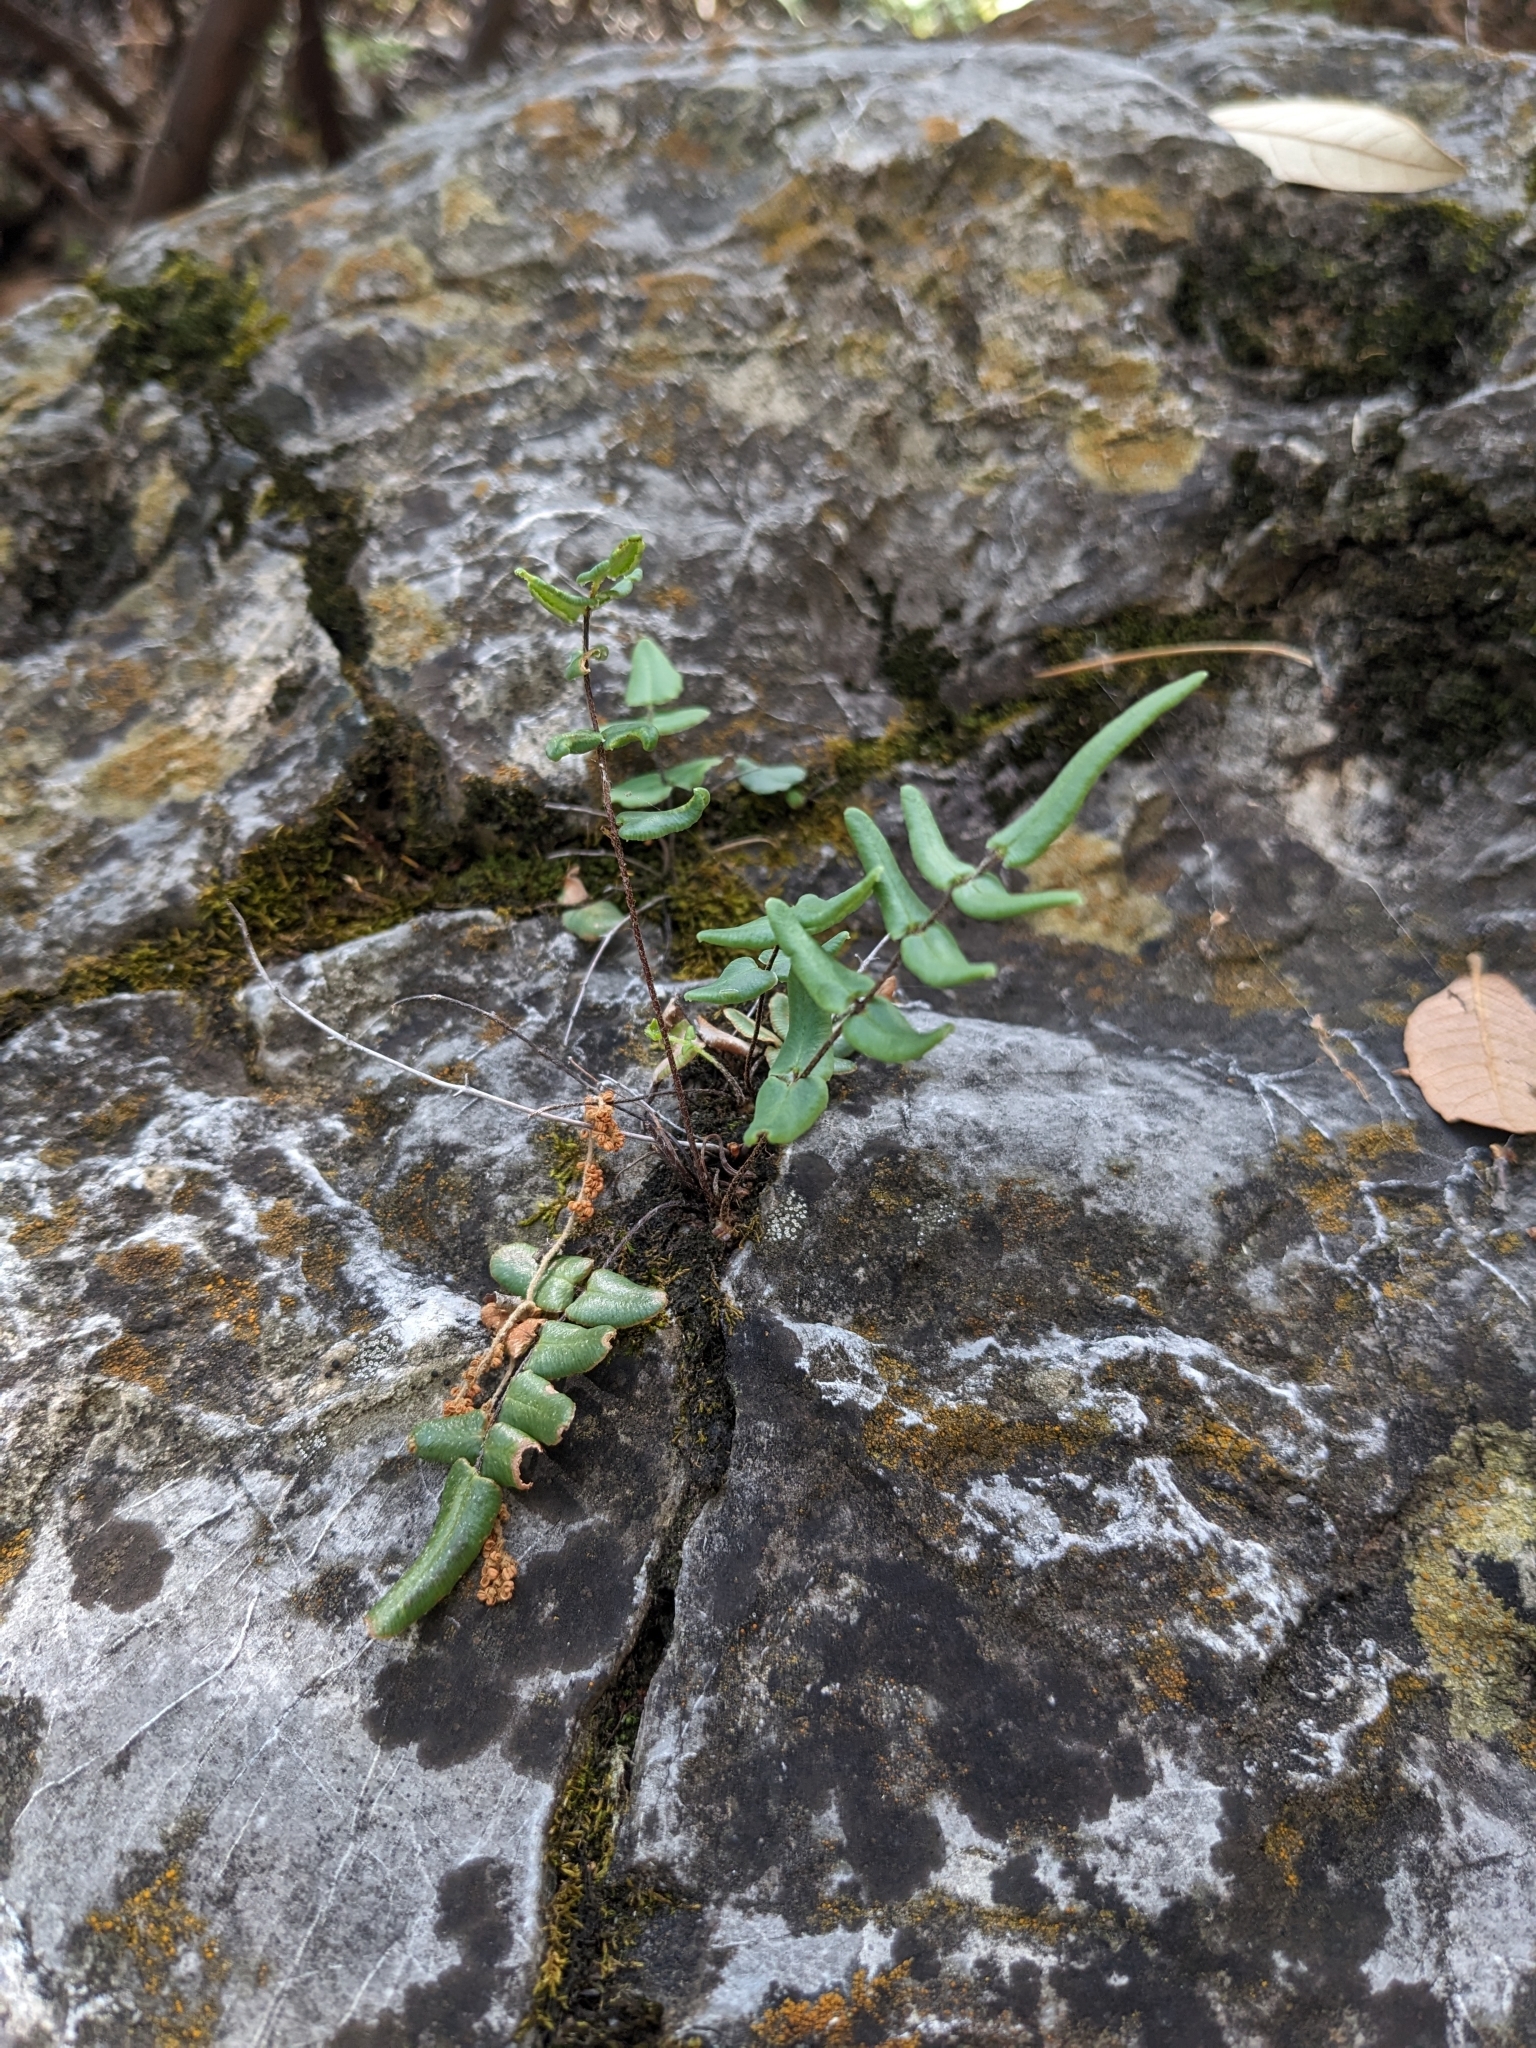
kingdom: Plantae
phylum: Tracheophyta
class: Polypodiopsida
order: Polypodiales
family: Pteridaceae
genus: Pellaea
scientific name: Pellaea atropurpurea
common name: Hairy cliffbrake
